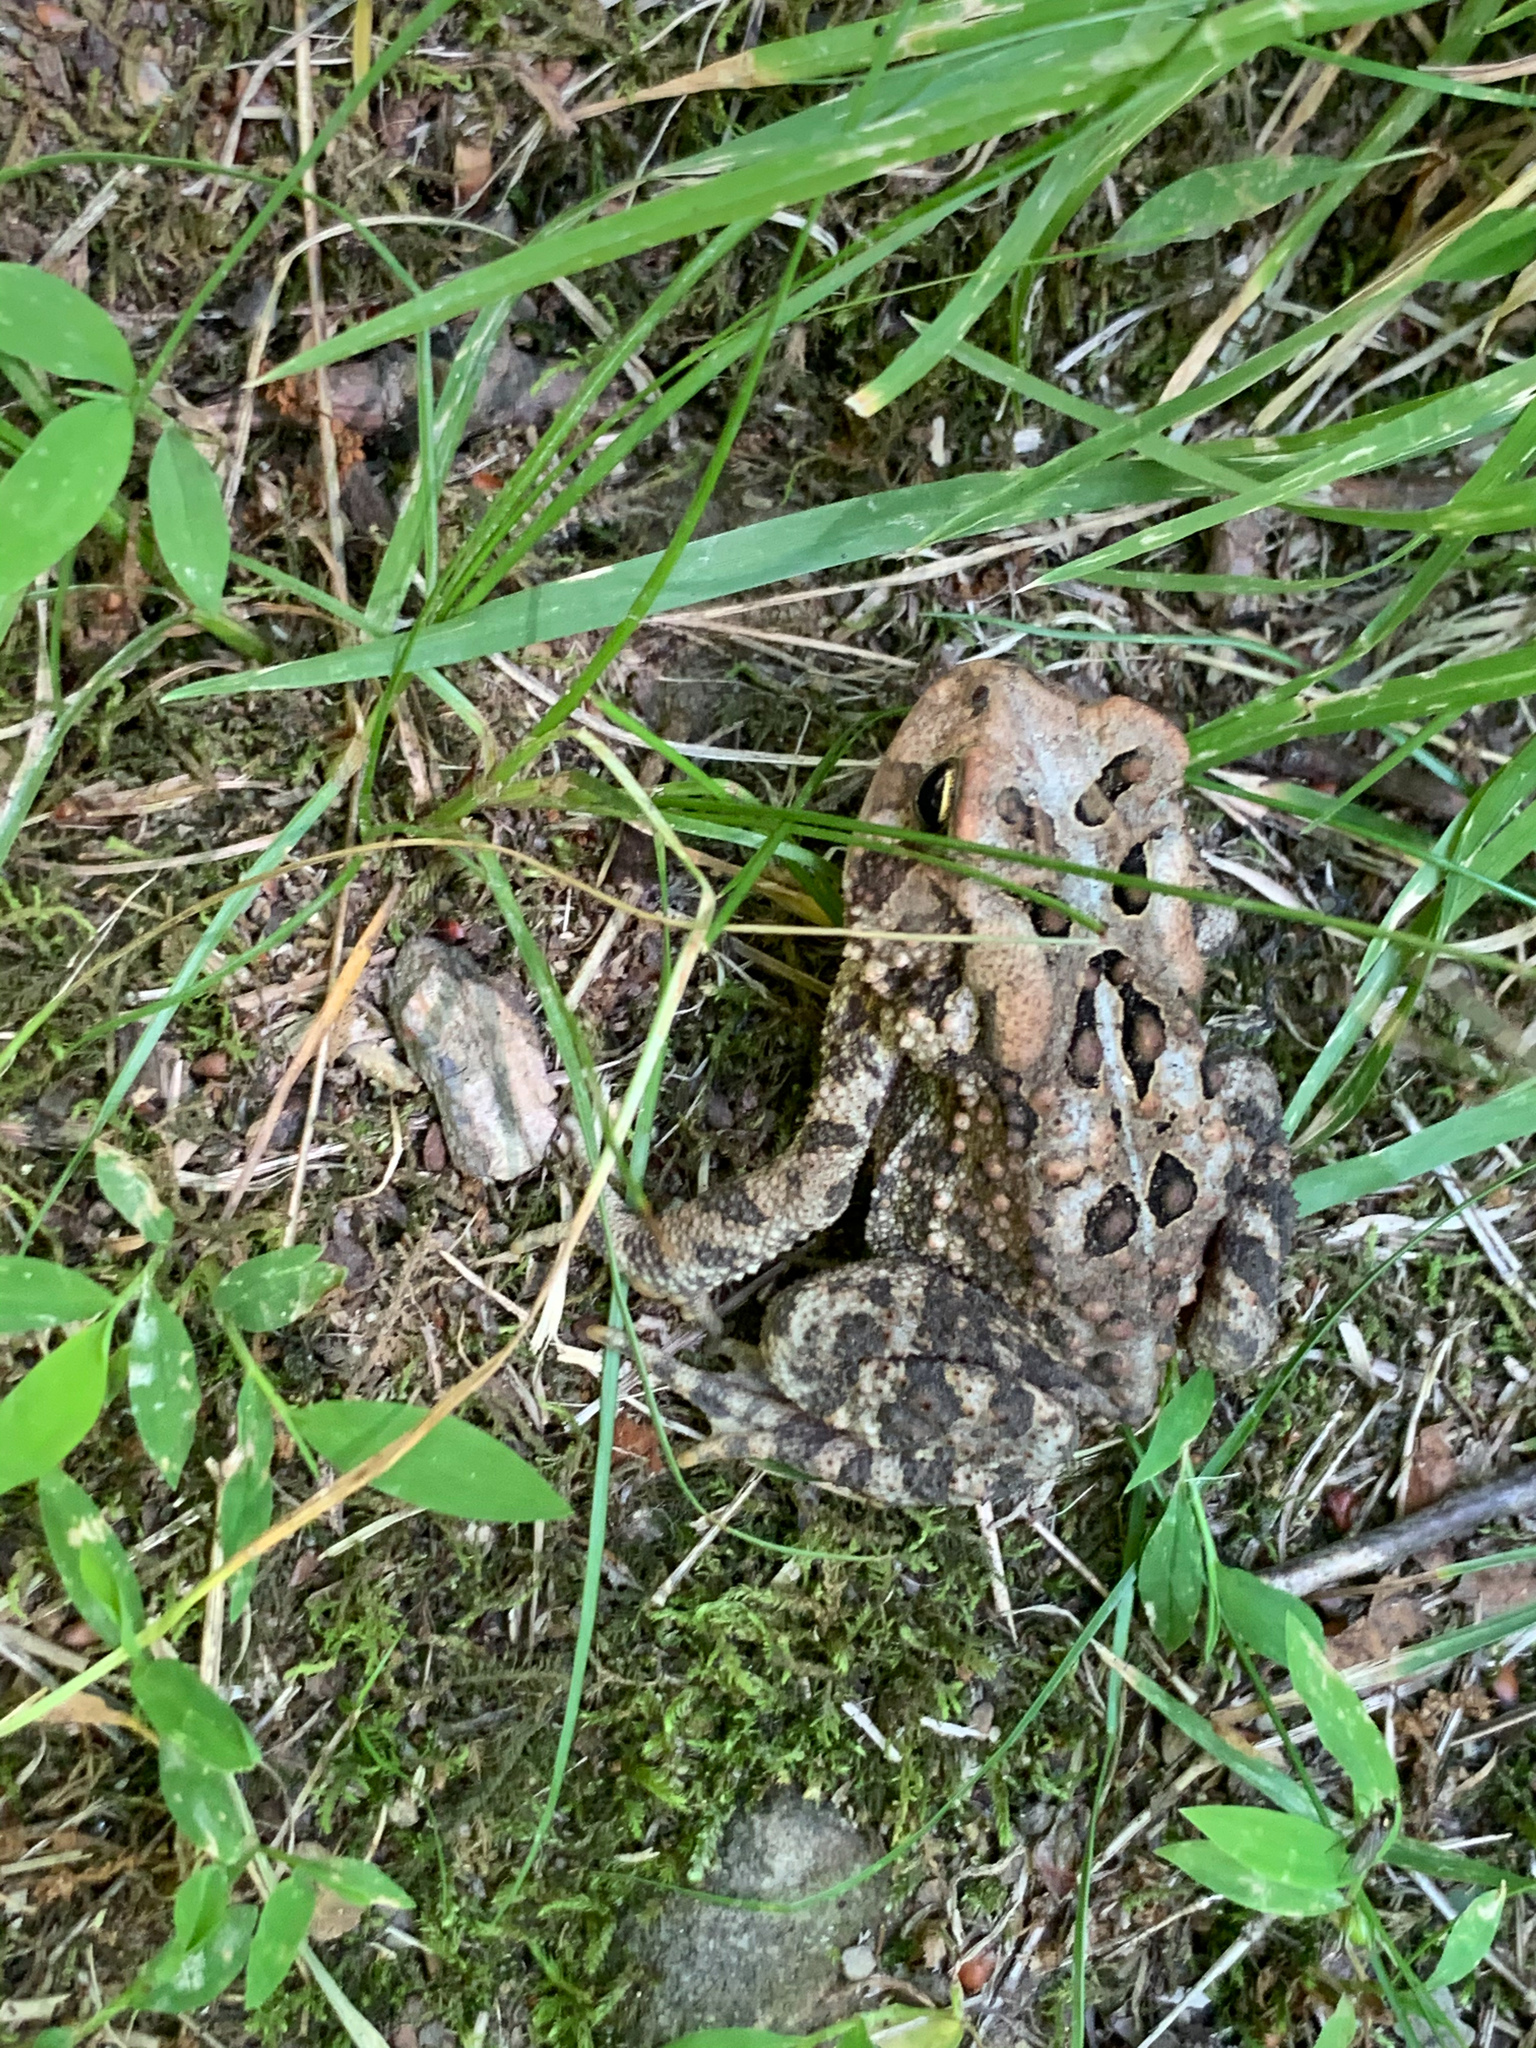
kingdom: Animalia
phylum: Chordata
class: Amphibia
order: Anura
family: Bufonidae
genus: Anaxyrus
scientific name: Anaxyrus americanus
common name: American toad
